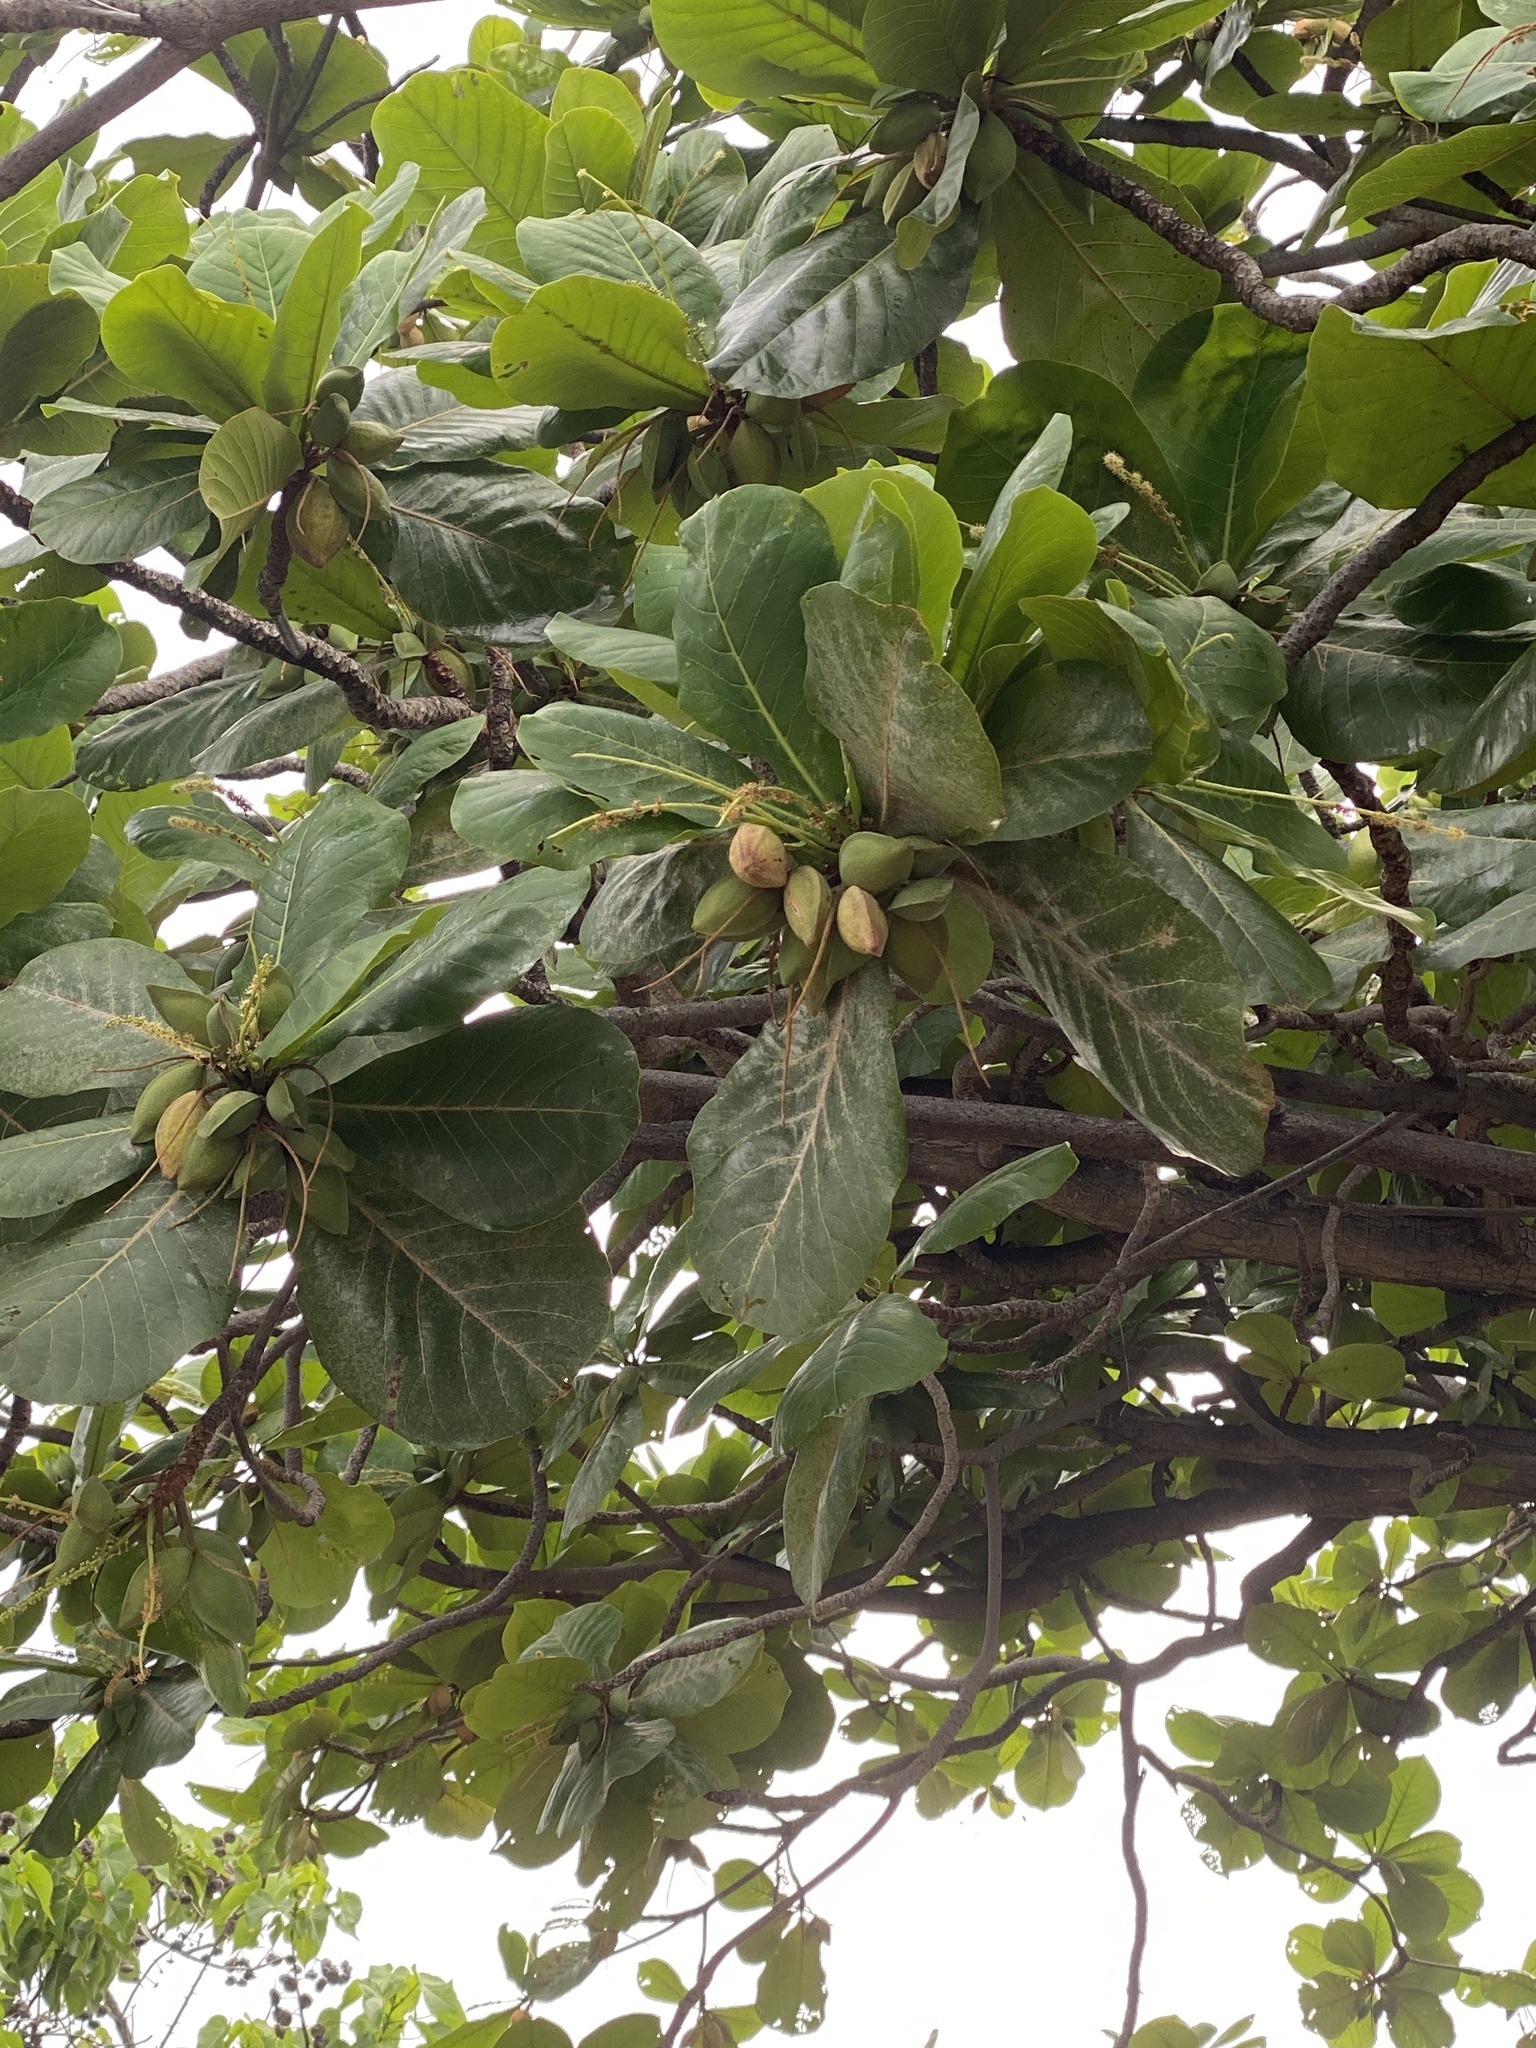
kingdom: Plantae
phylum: Tracheophyta
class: Magnoliopsida
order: Myrtales
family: Combretaceae
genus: Terminalia
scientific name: Terminalia catappa
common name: Tropical almond
